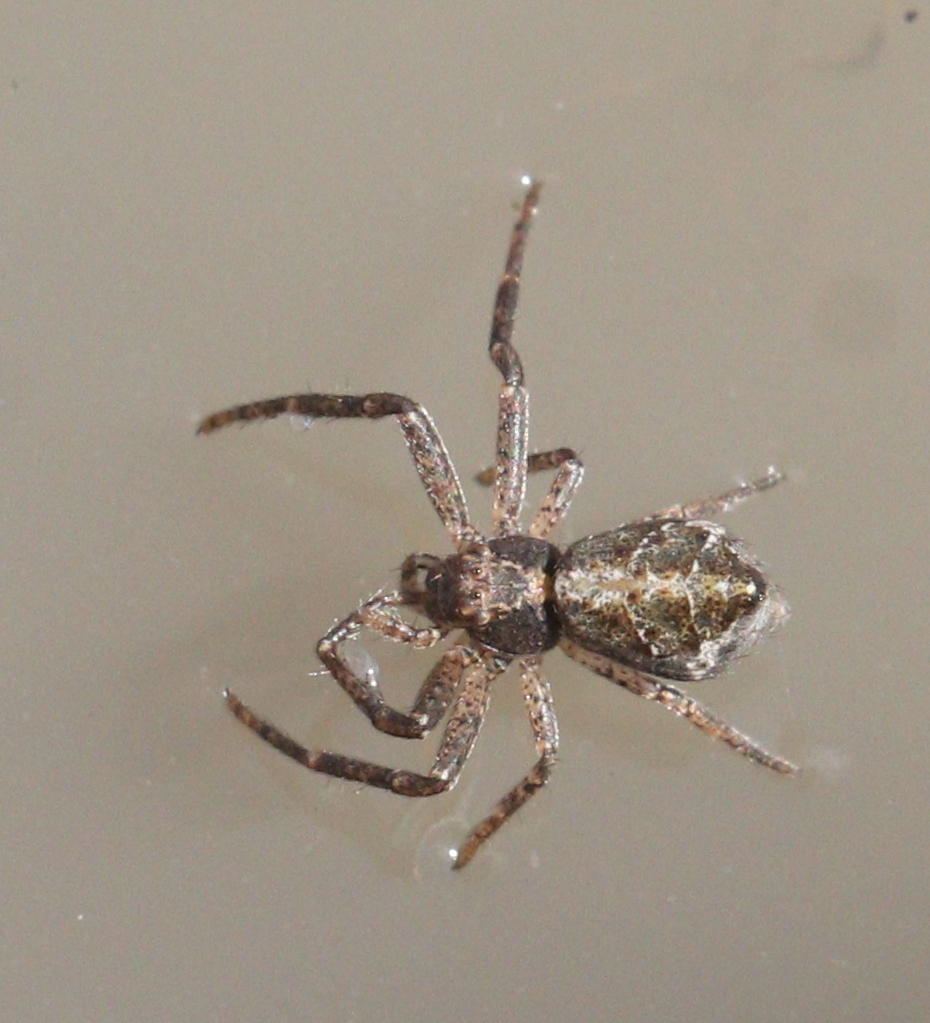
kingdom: Animalia
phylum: Arthropoda
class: Arachnida
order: Araneae
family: Thomisidae
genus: Tmarus
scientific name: Tmarus piger
